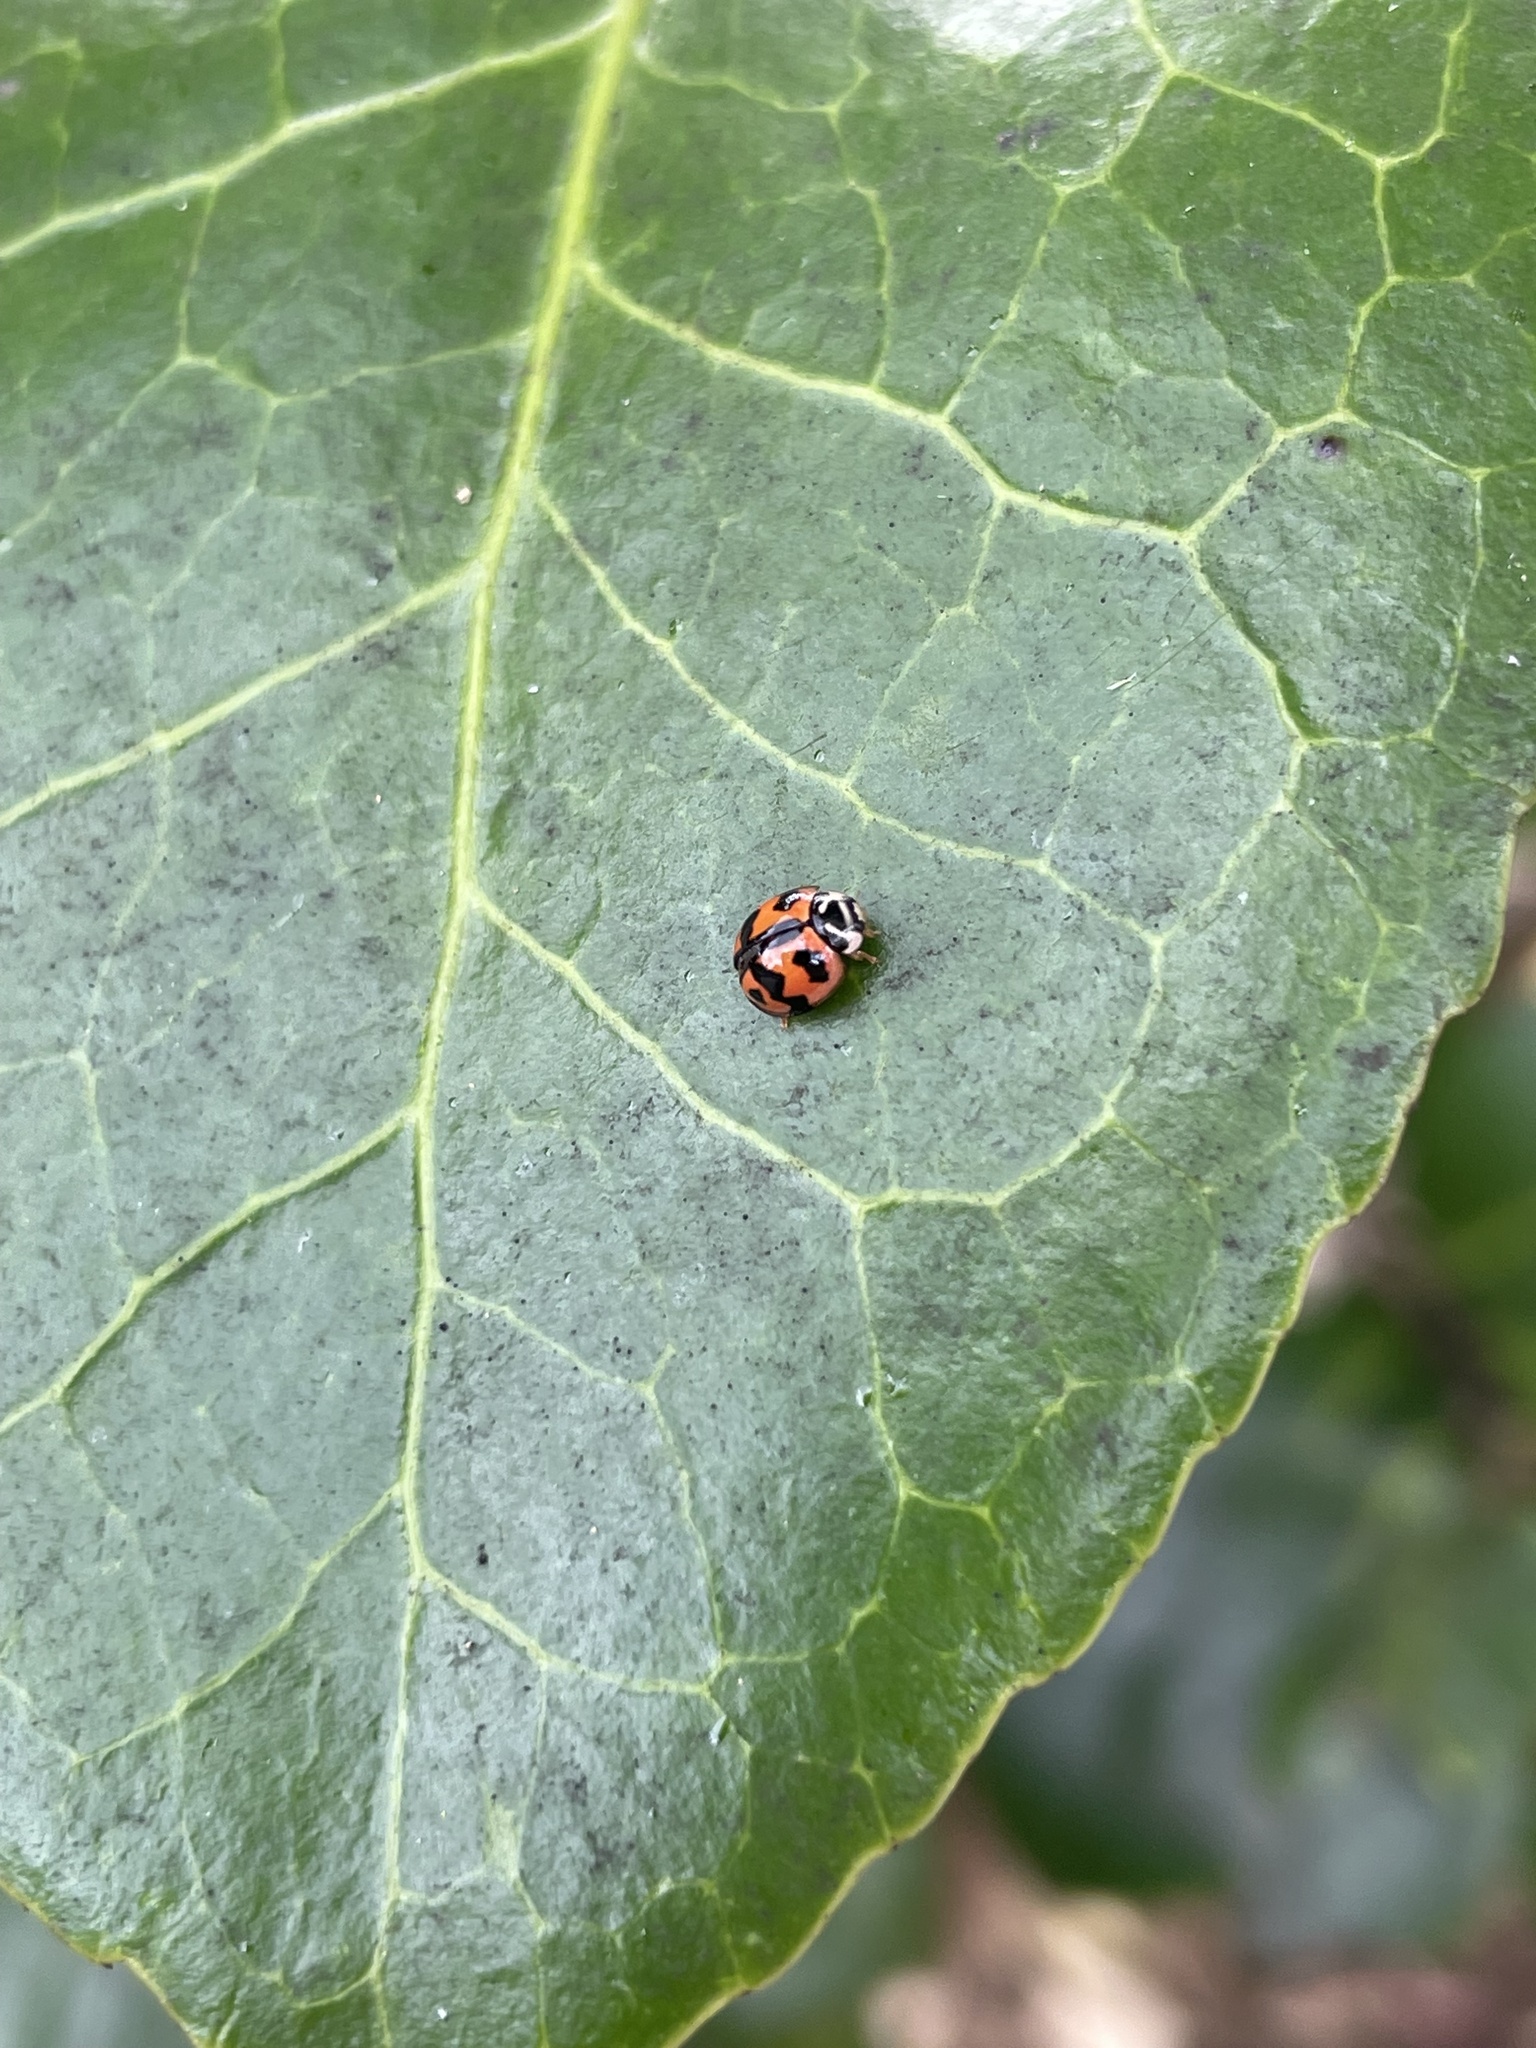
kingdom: Animalia
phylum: Arthropoda
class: Insecta
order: Coleoptera
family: Coccinellidae
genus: Cheilomenes
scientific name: Cheilomenes sexmaculata
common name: Ladybird beetle
